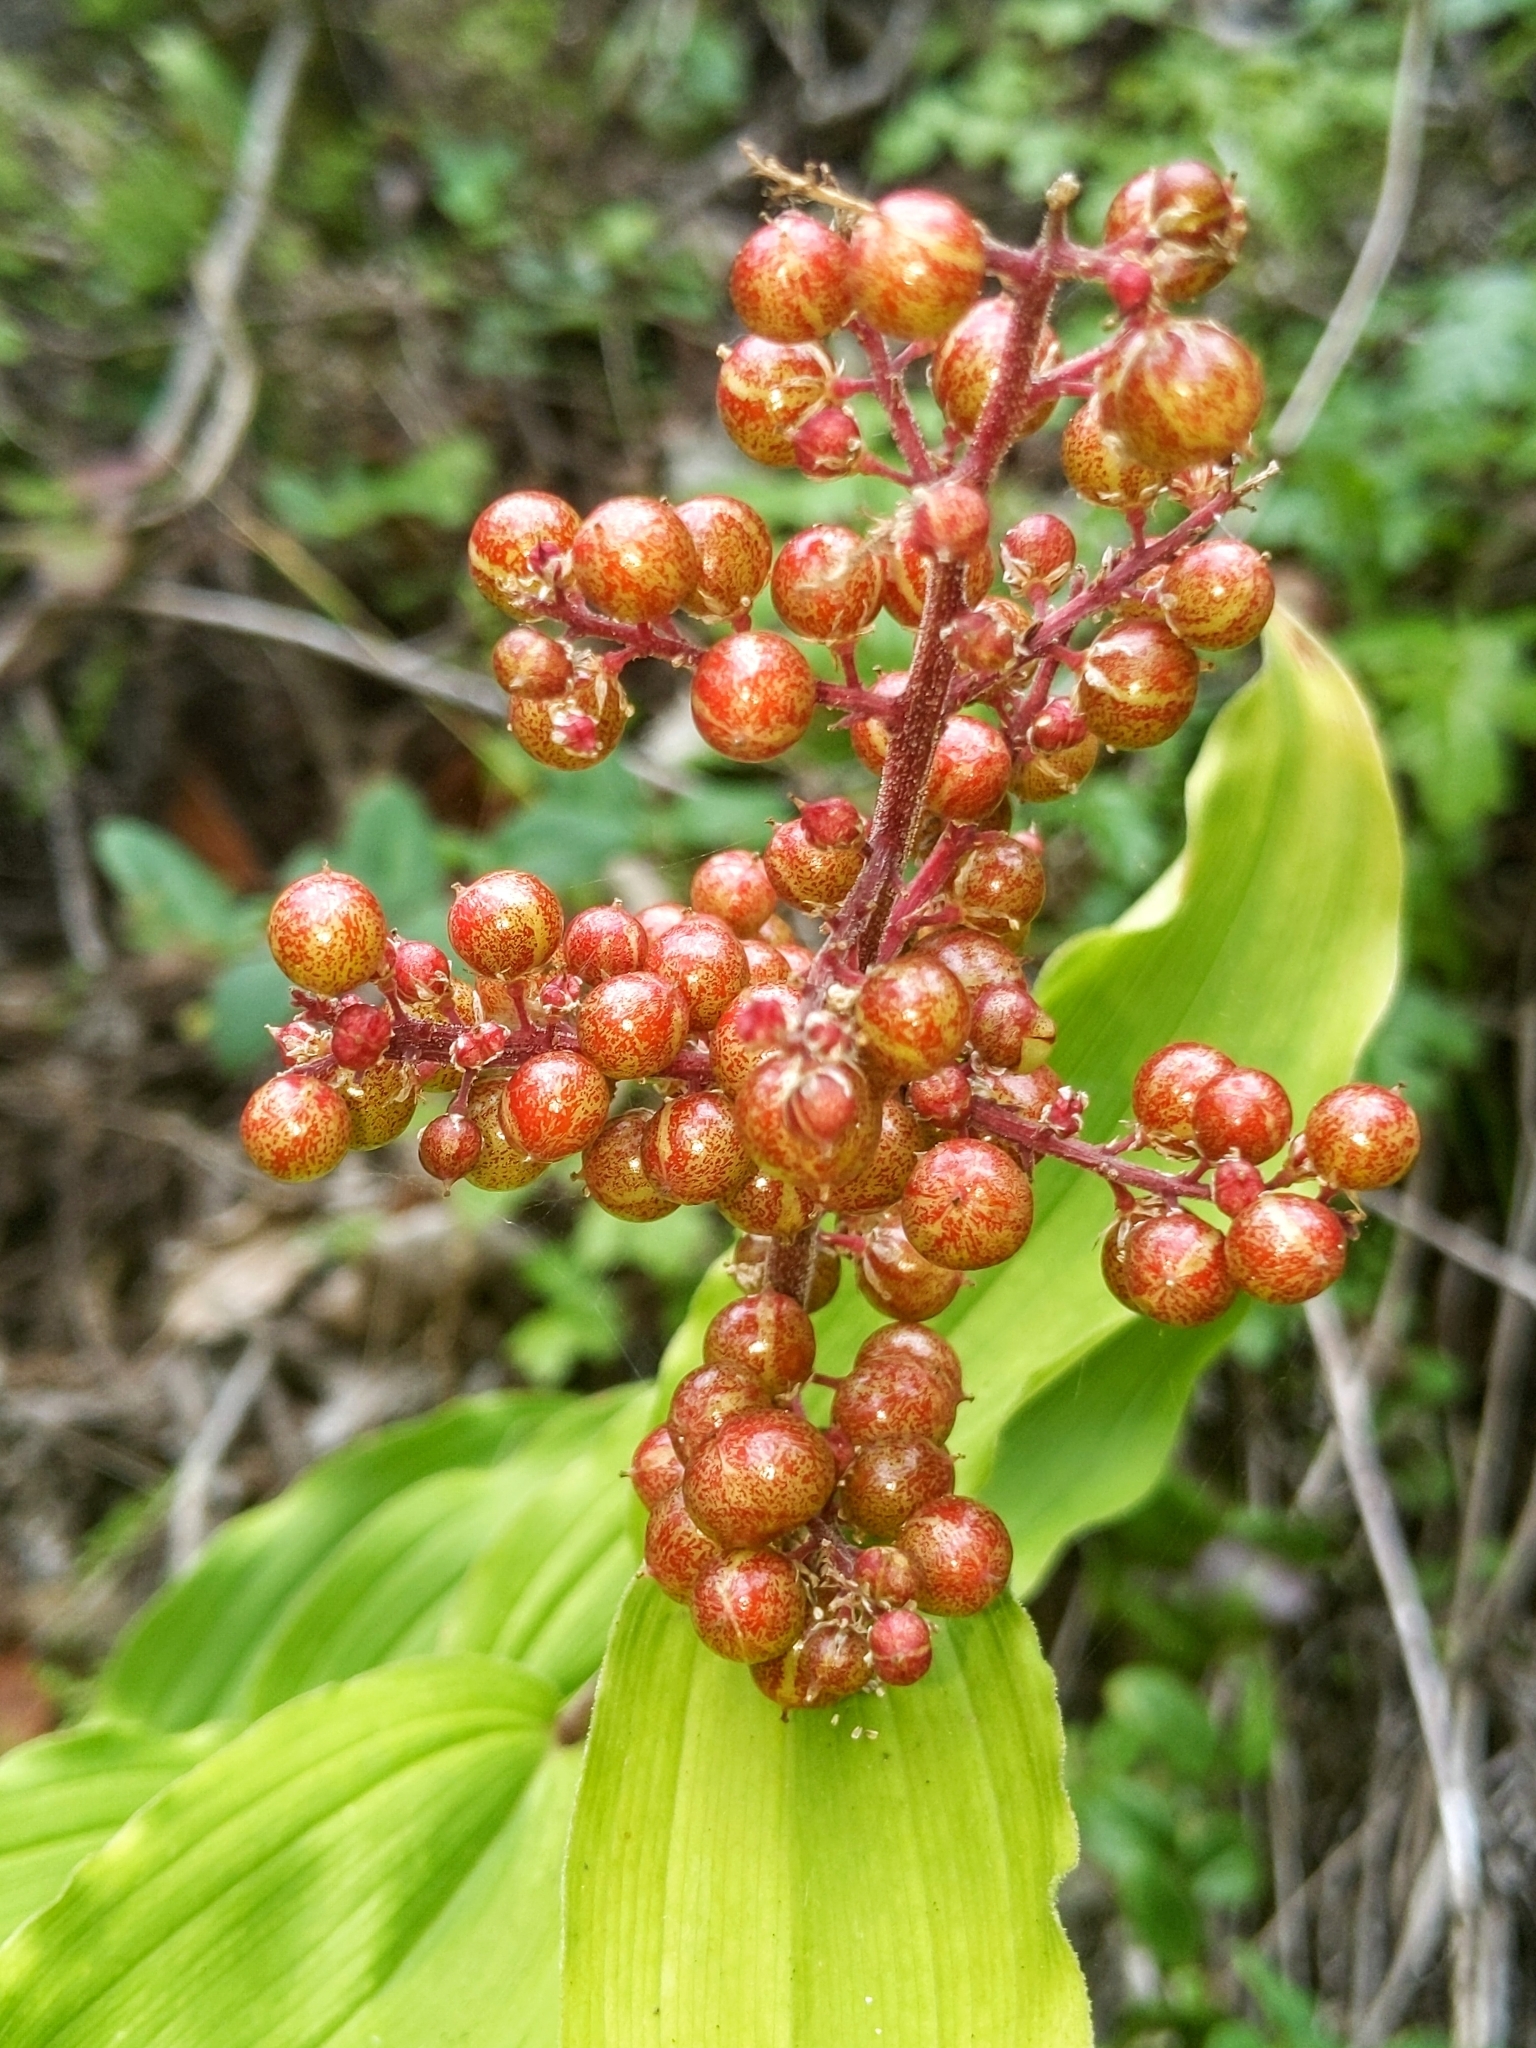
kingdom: Plantae
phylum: Tracheophyta
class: Liliopsida
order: Asparagales
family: Asparagaceae
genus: Maianthemum
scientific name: Maianthemum racemosum
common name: False spikenard
